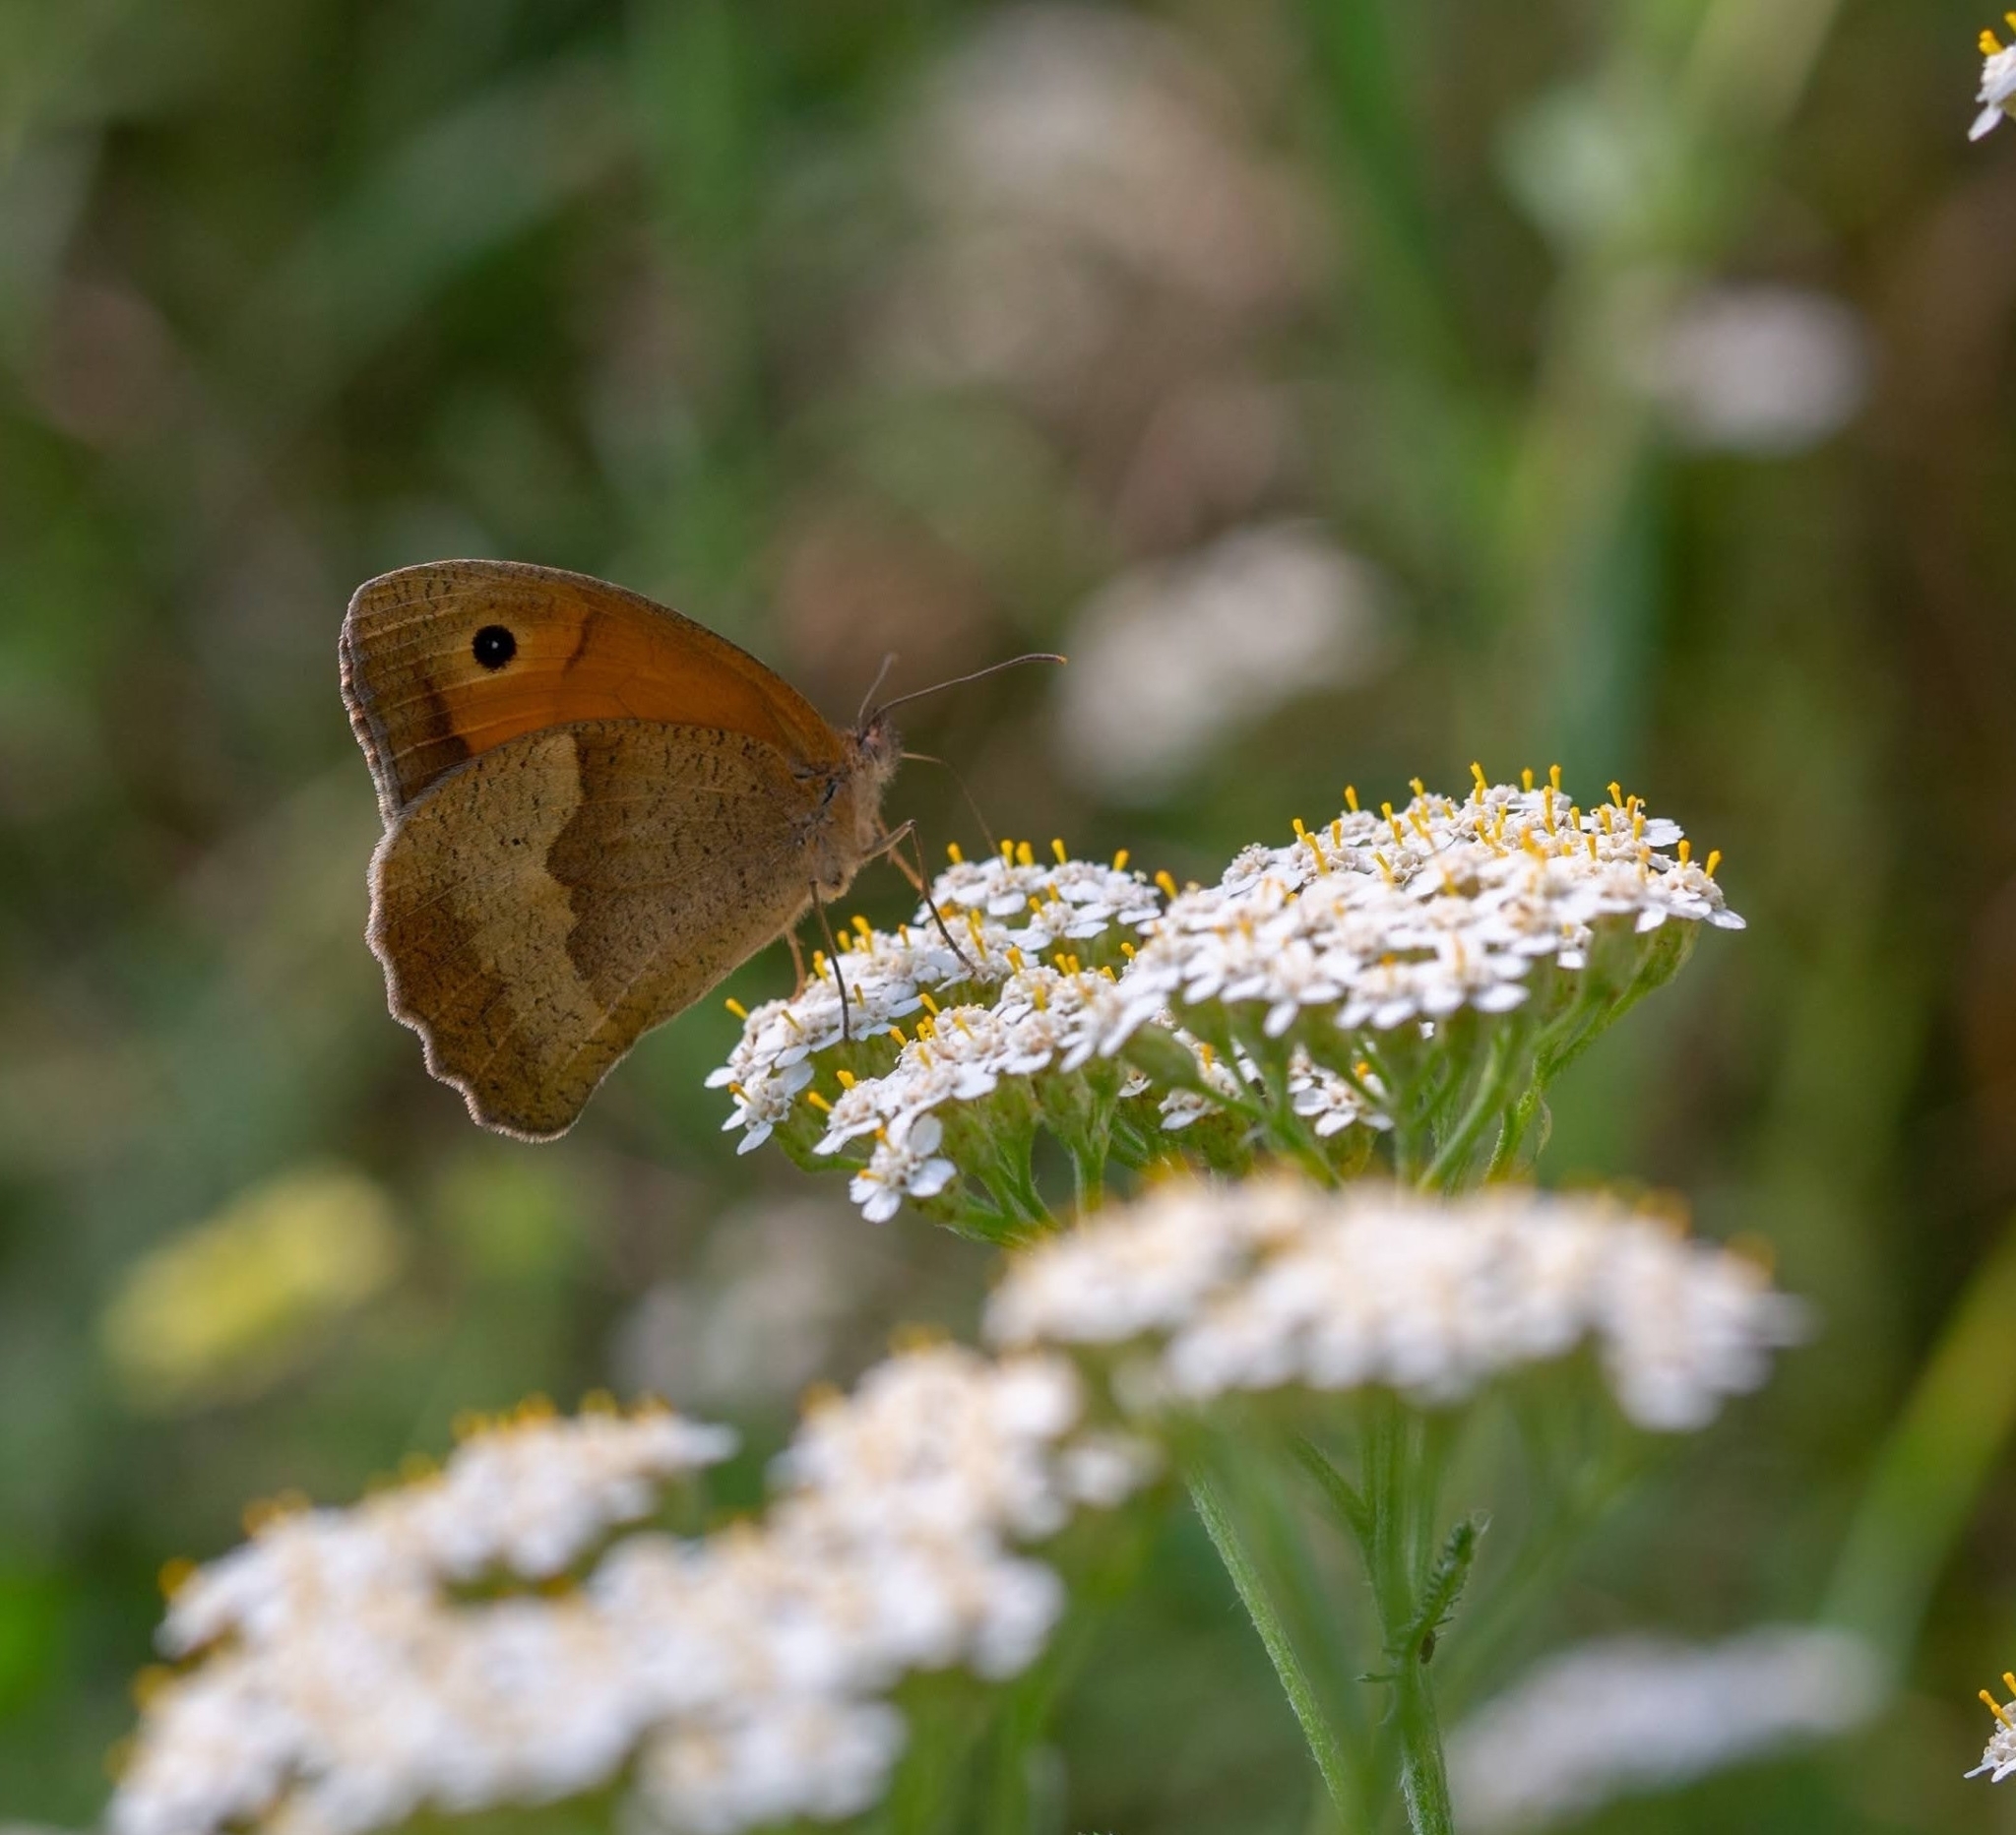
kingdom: Animalia
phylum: Arthropoda
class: Insecta
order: Lepidoptera
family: Nymphalidae
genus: Maniola
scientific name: Maniola jurtina
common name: Meadow brown
